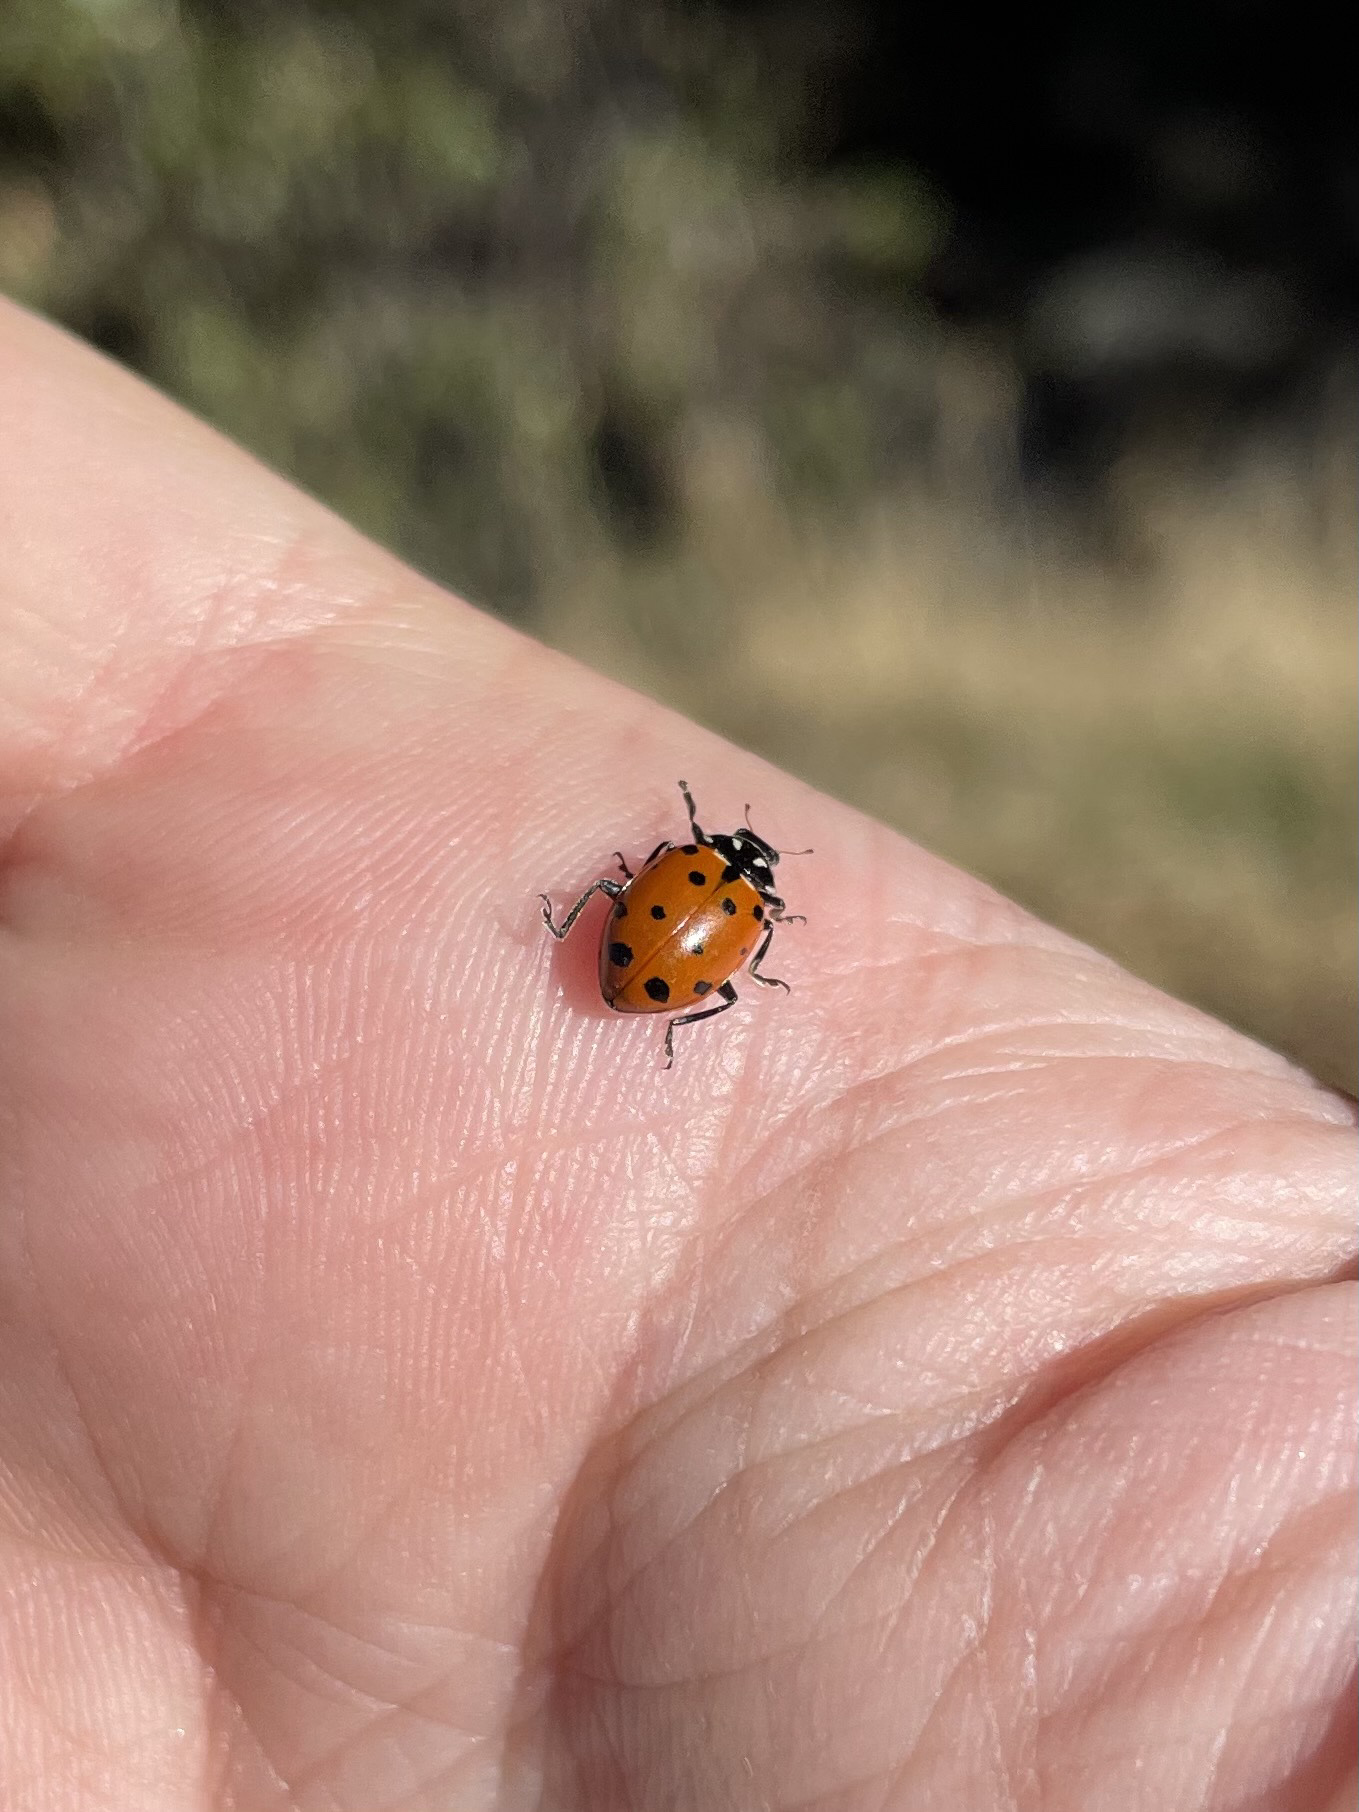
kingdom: Animalia
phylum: Arthropoda
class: Insecta
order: Coleoptera
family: Coccinellidae
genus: Hippodamia
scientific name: Hippodamia convergens
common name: Convergent lady beetle
